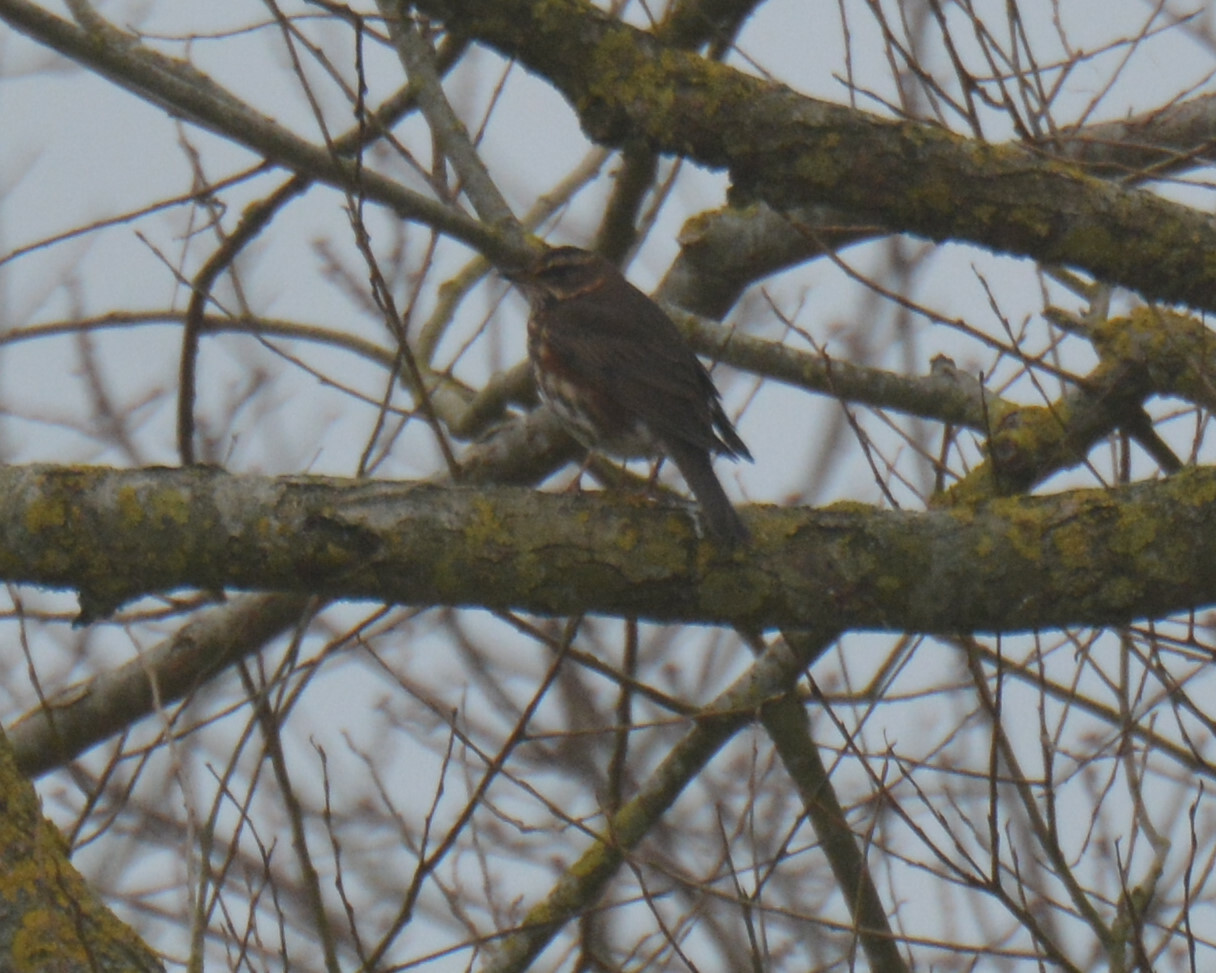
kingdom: Animalia
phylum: Chordata
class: Aves
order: Passeriformes
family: Turdidae
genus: Turdus
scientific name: Turdus iliacus
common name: Redwing
